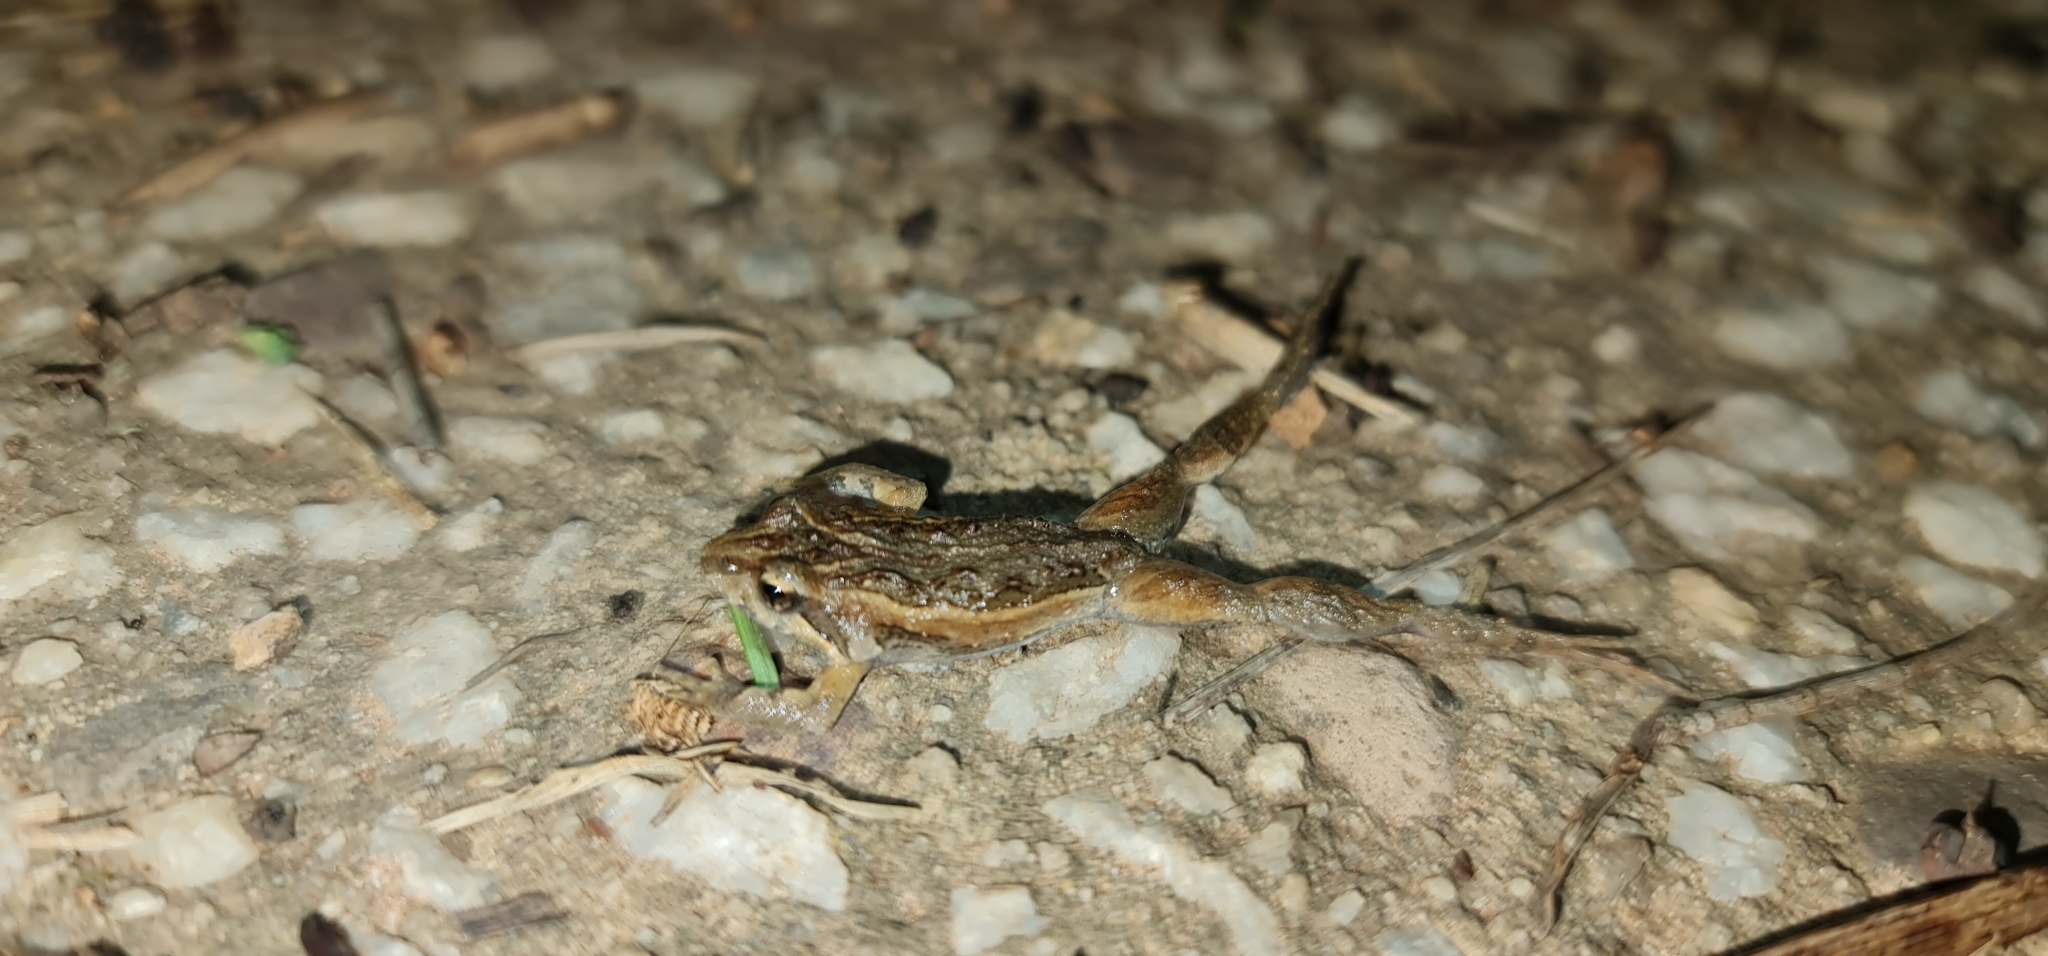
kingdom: Animalia
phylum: Chordata
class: Amphibia
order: Anura
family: Myobatrachidae
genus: Crinia
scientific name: Crinia signifera
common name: Brown froglet
